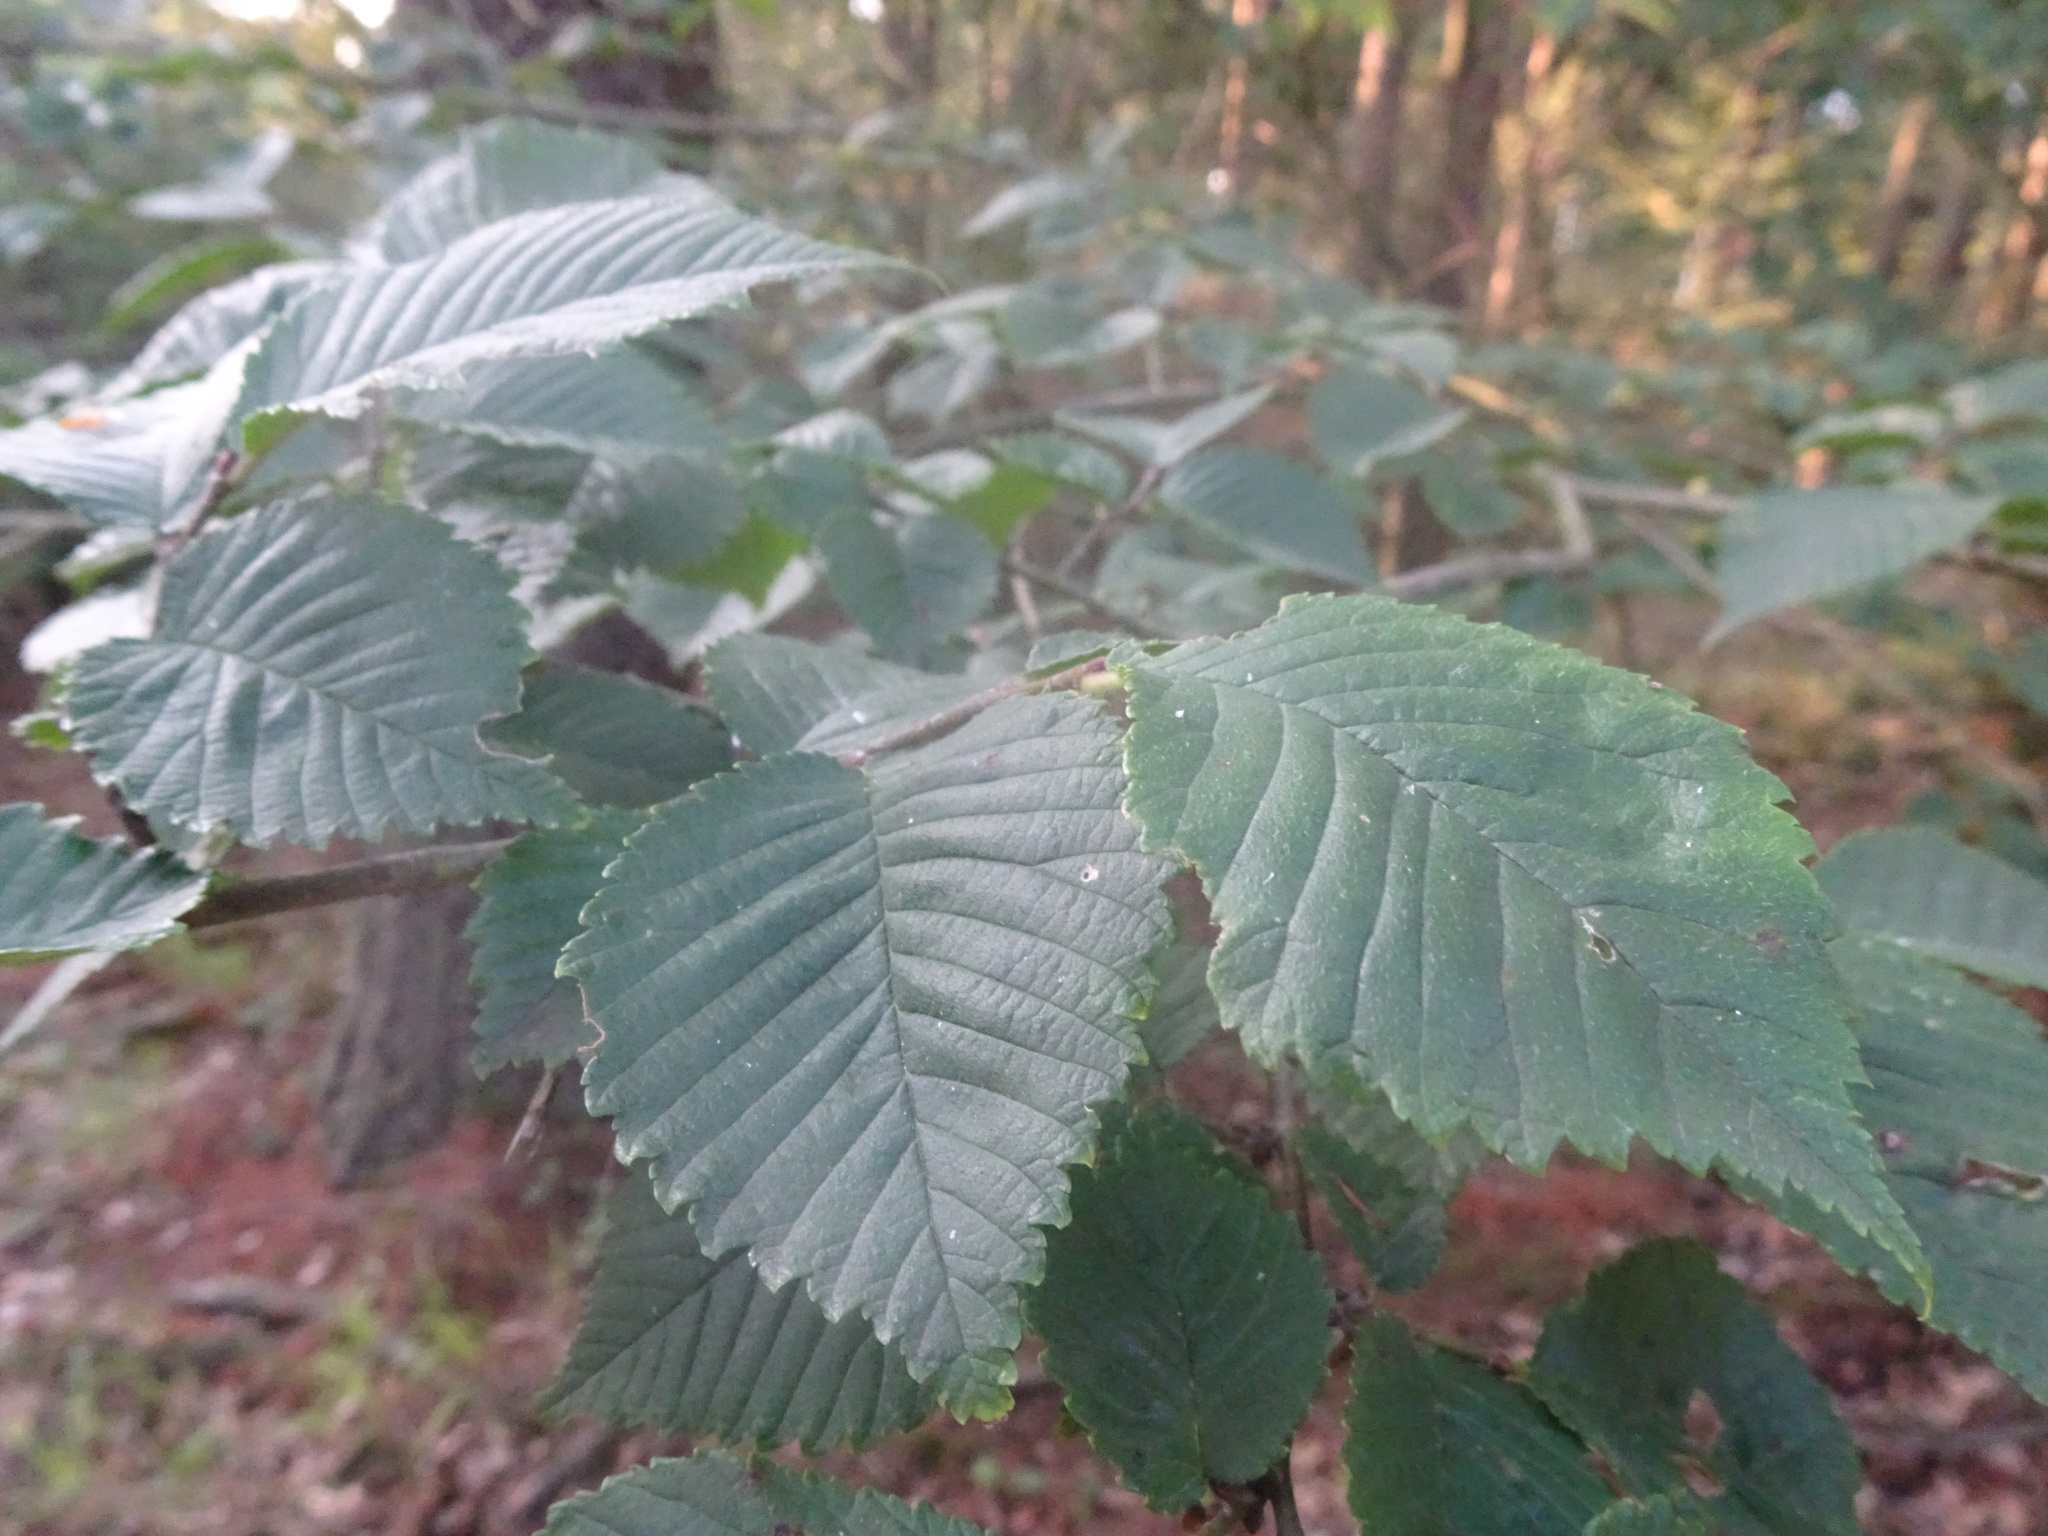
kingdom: Plantae
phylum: Tracheophyta
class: Magnoliopsida
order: Rosales
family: Ulmaceae
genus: Ulmus
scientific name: Ulmus glabra
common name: Wych elm
